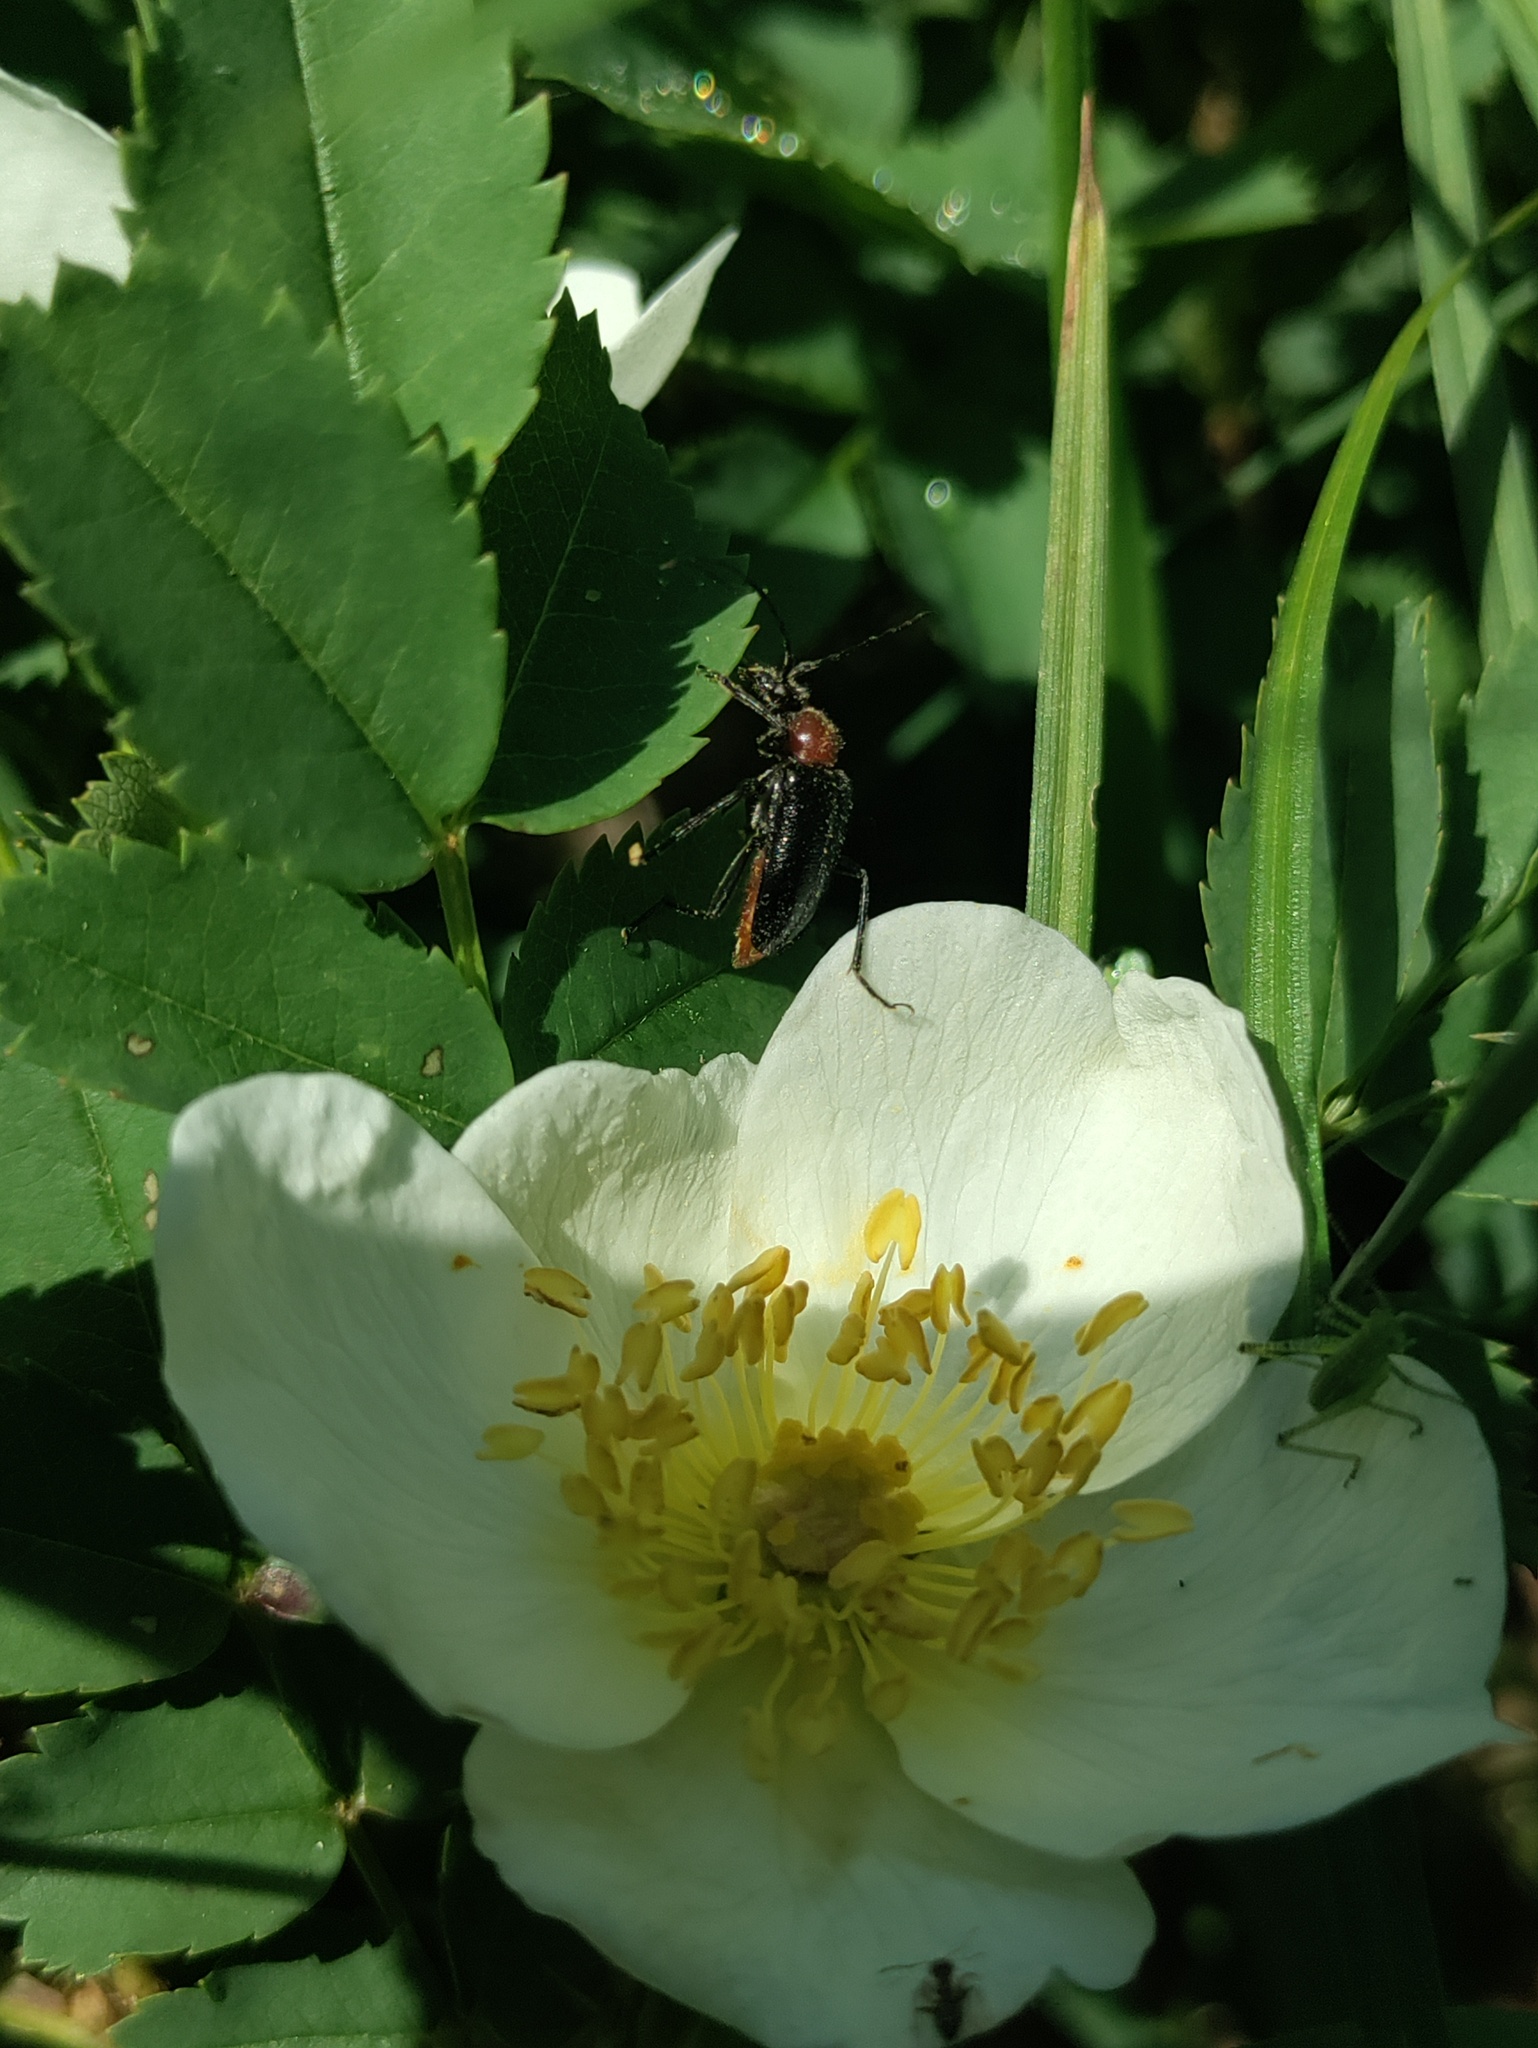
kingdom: Animalia
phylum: Arthropoda
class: Insecta
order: Coleoptera
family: Cerambycidae
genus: Dinoptera
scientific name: Dinoptera collaris
